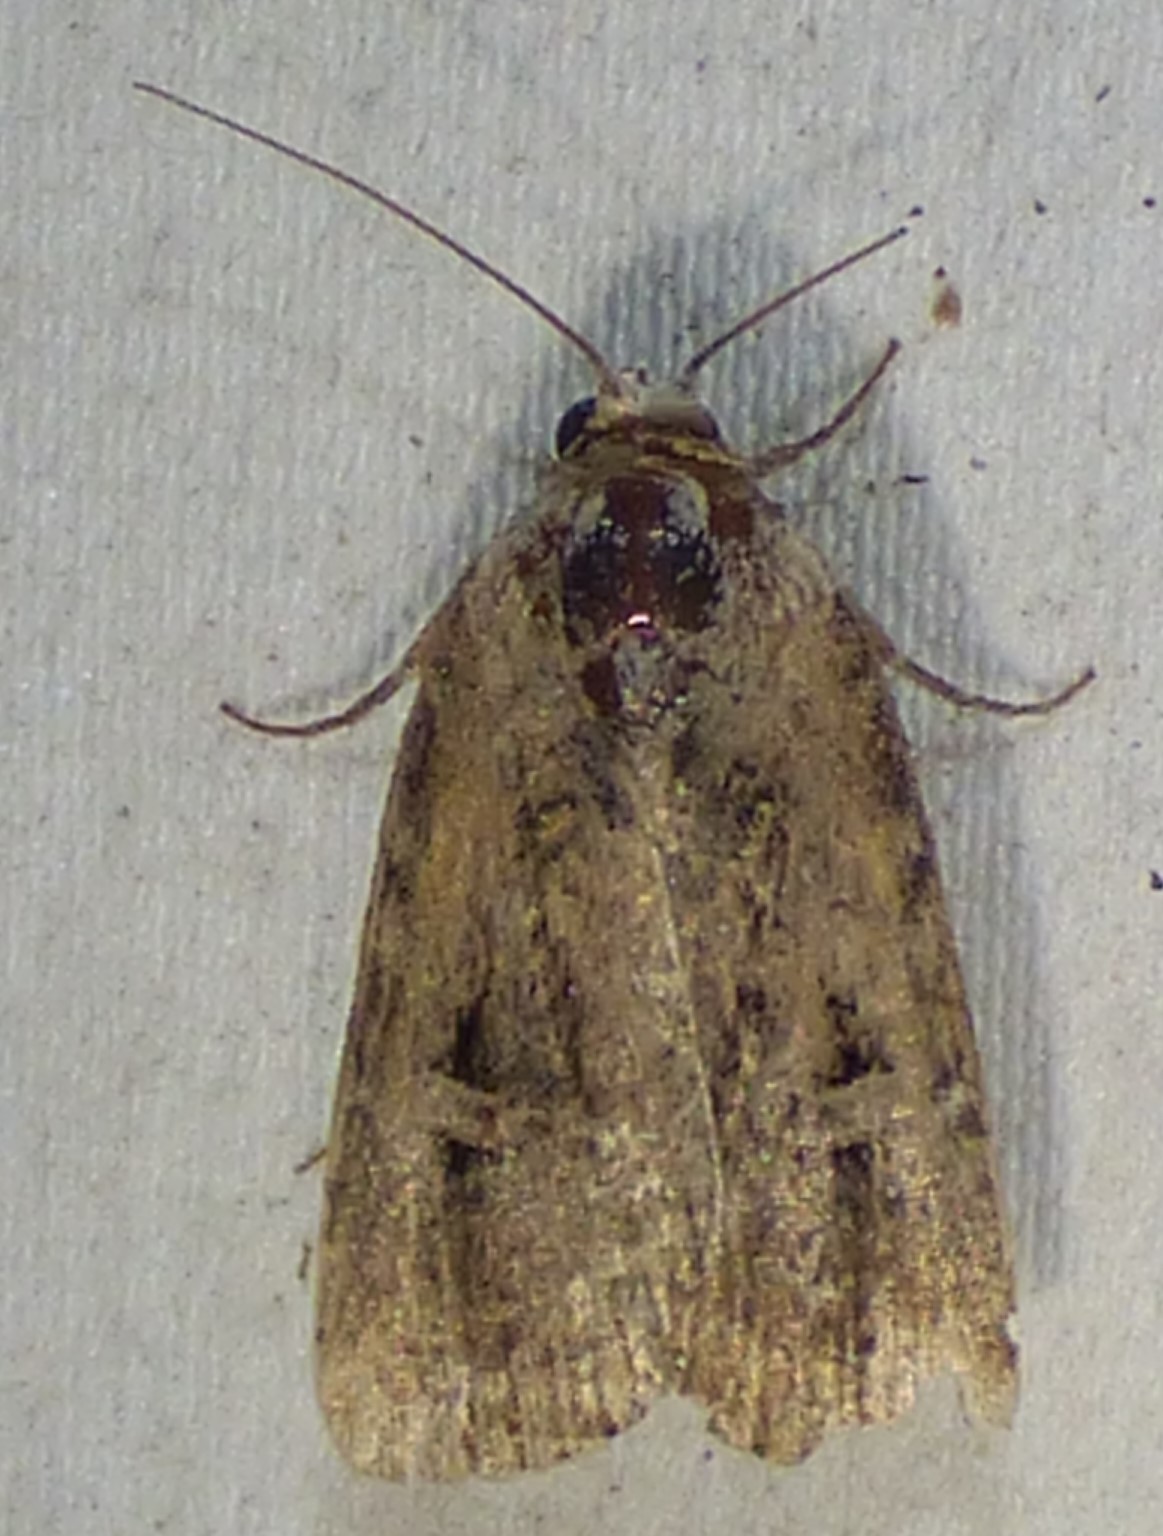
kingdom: Animalia
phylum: Arthropoda
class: Insecta
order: Lepidoptera
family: Noctuidae
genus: Elaphria
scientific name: Elaphria chalcedonia
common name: Chalcedony midget
